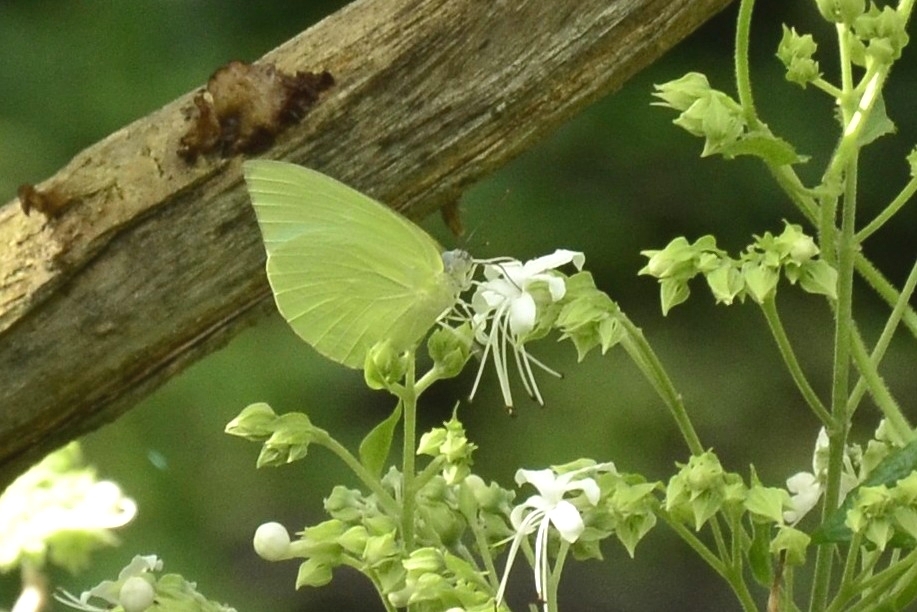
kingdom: Animalia
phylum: Arthropoda
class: Insecta
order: Lepidoptera
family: Pieridae
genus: Catopsilia
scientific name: Catopsilia pomona
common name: Common emigrant
